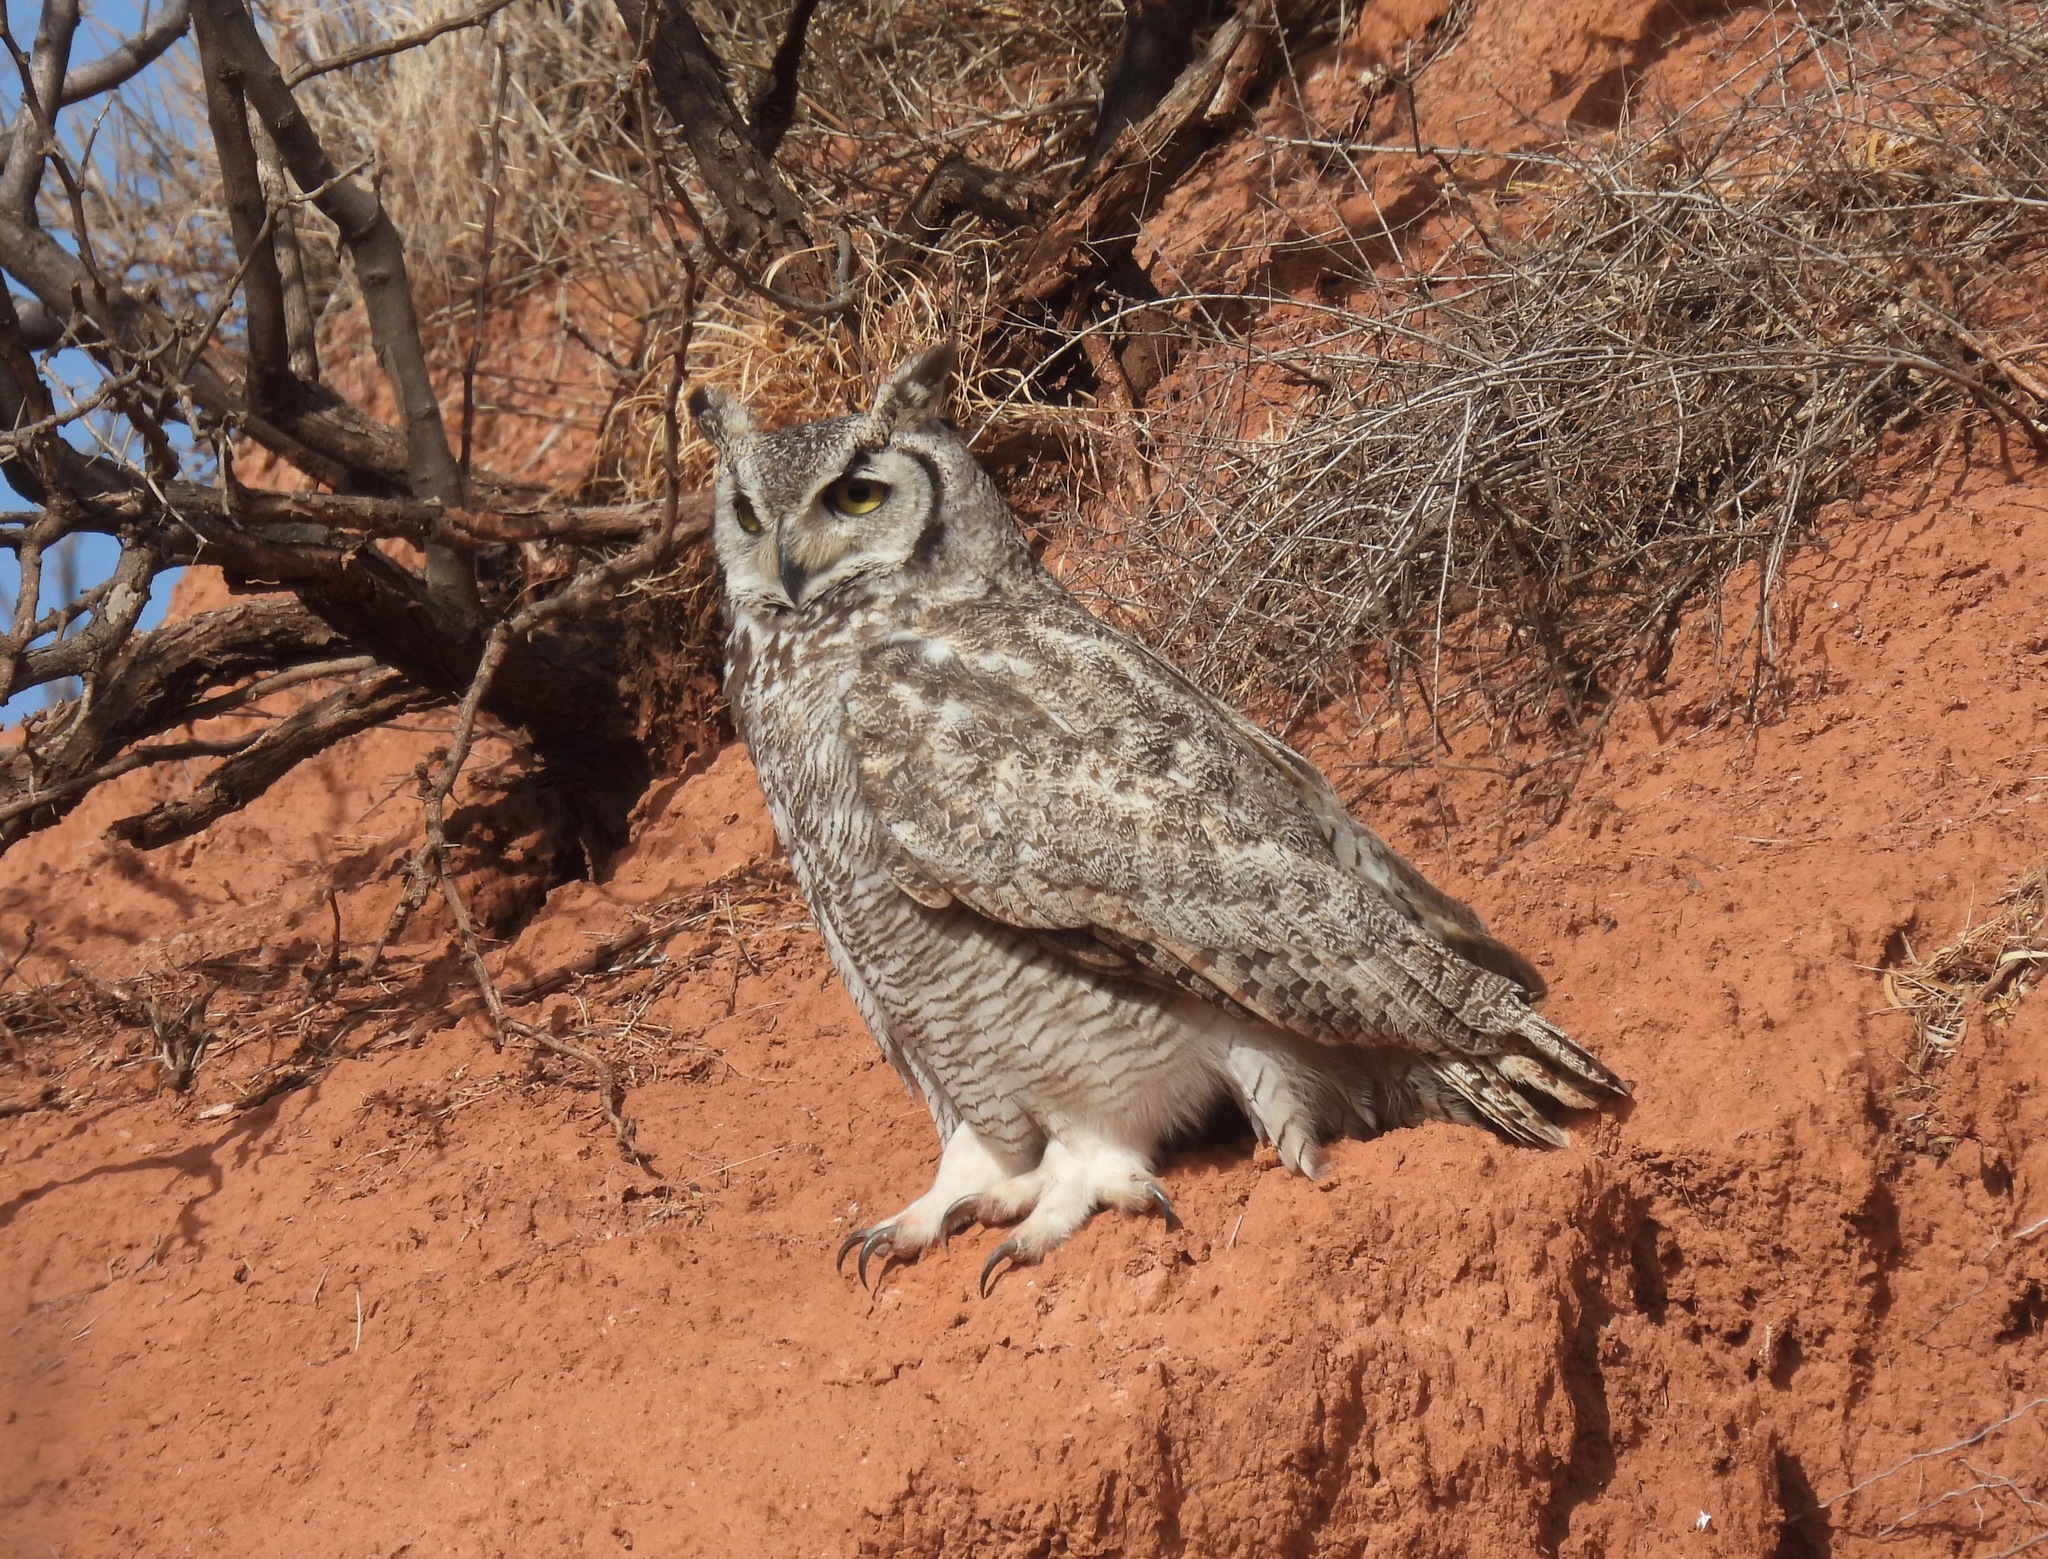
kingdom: Animalia
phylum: Chordata
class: Aves
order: Strigiformes
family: Strigidae
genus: Bubo
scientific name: Bubo virginianus
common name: Great horned owl
